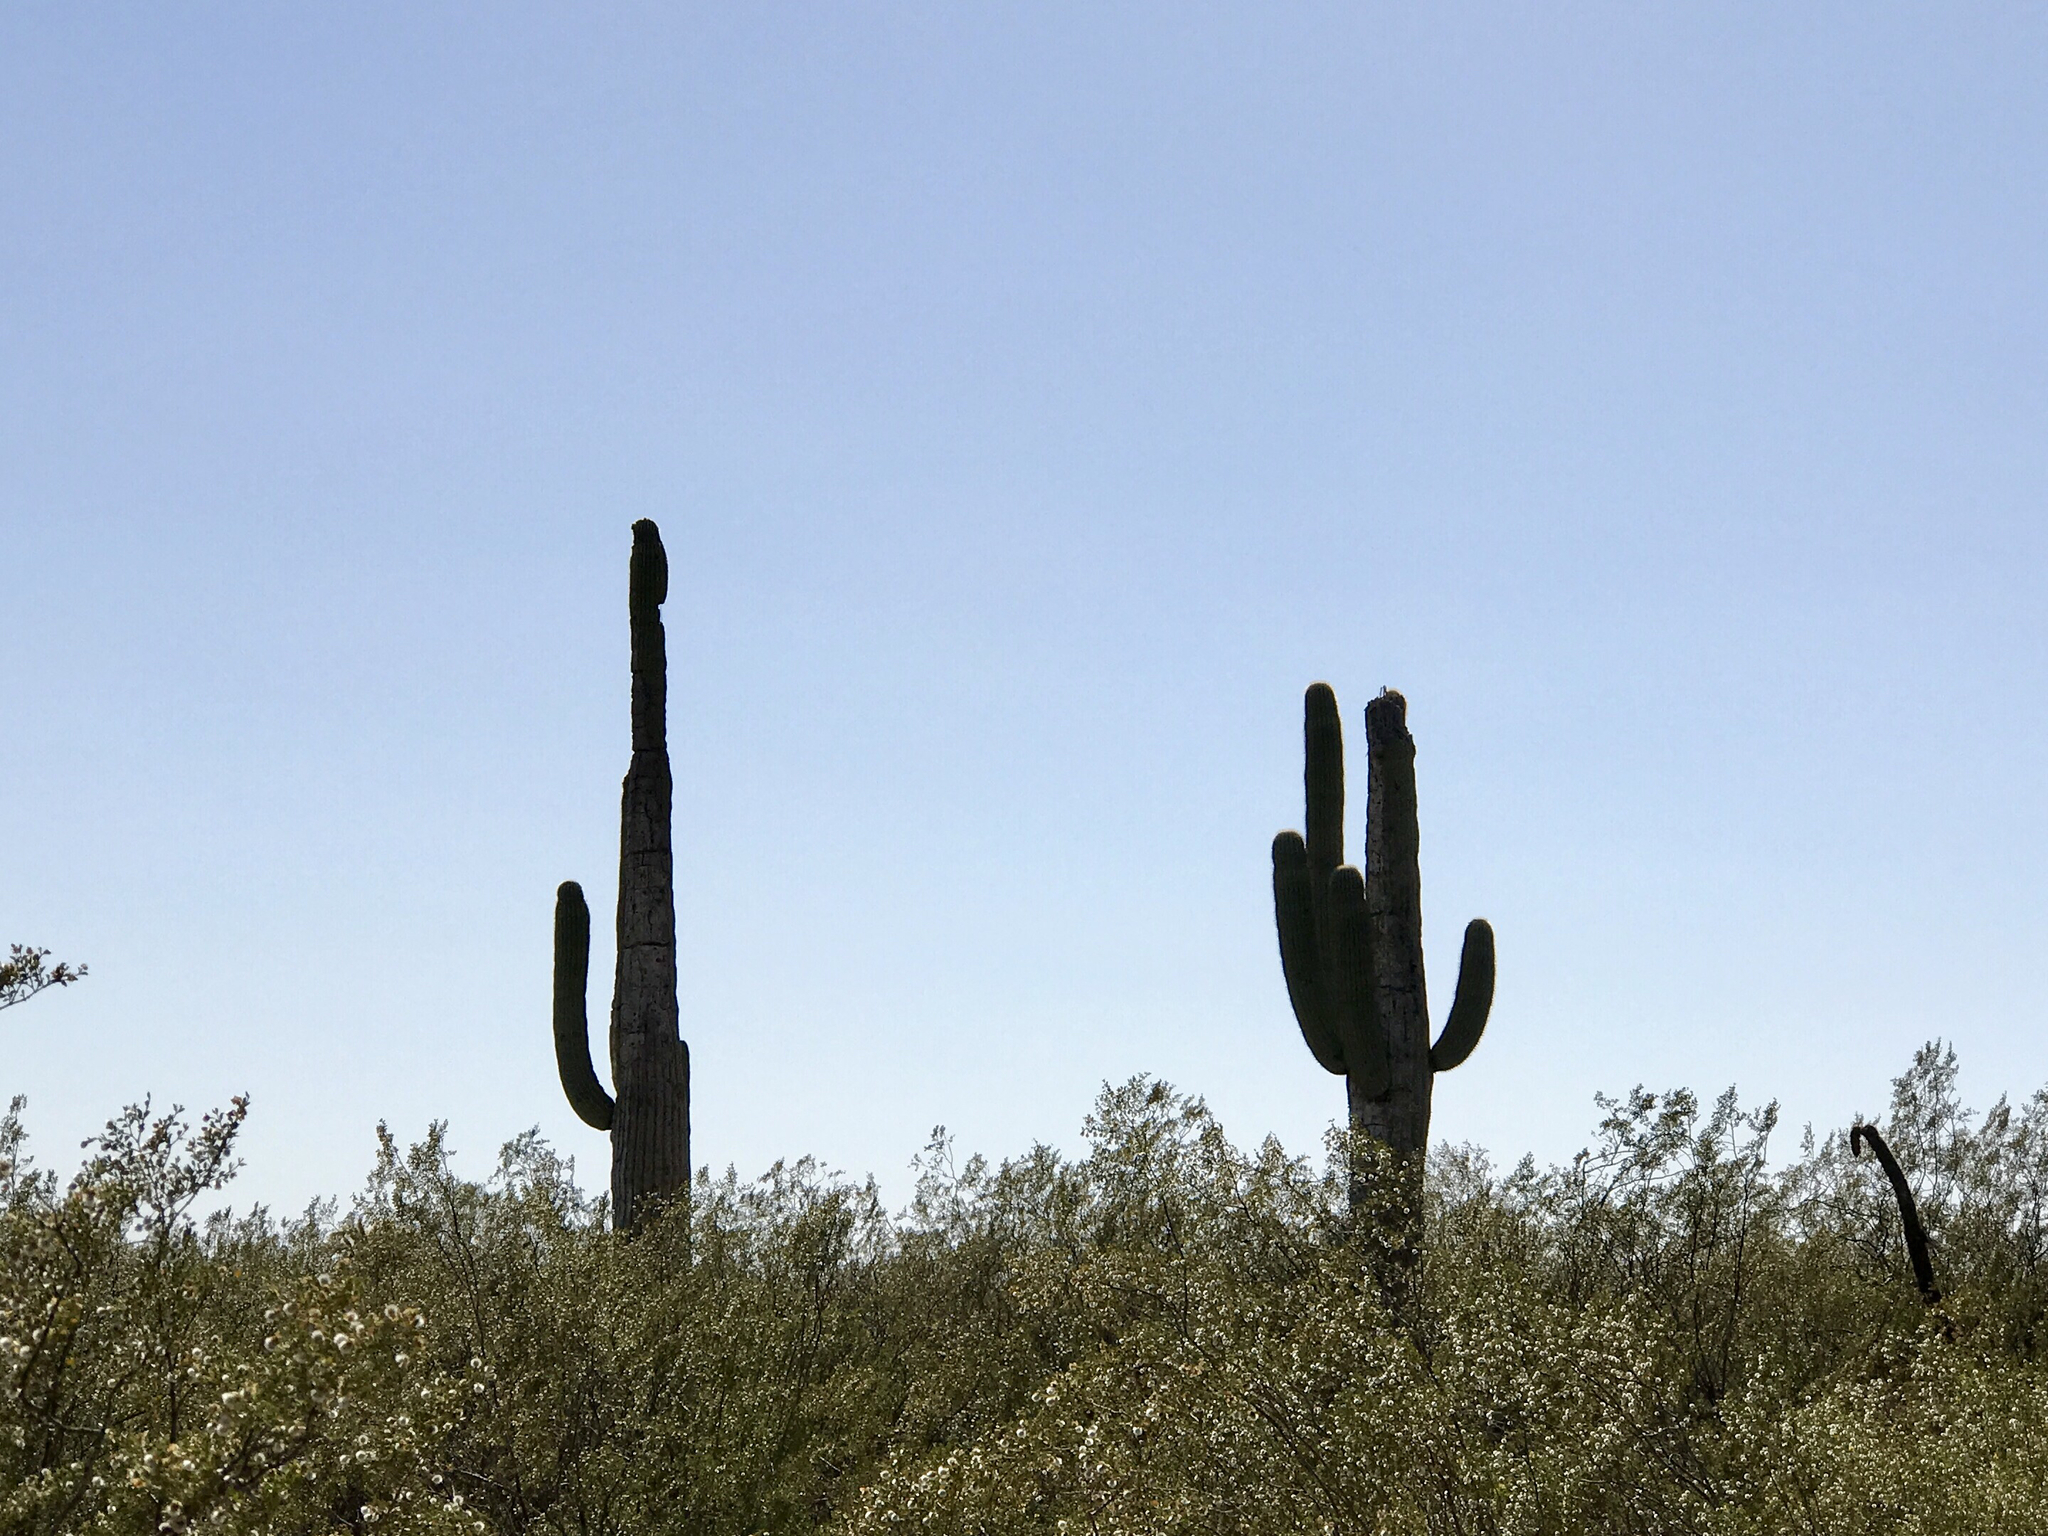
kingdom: Plantae
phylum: Tracheophyta
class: Magnoliopsida
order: Caryophyllales
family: Cactaceae
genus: Carnegiea
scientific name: Carnegiea gigantea
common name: Saguaro
